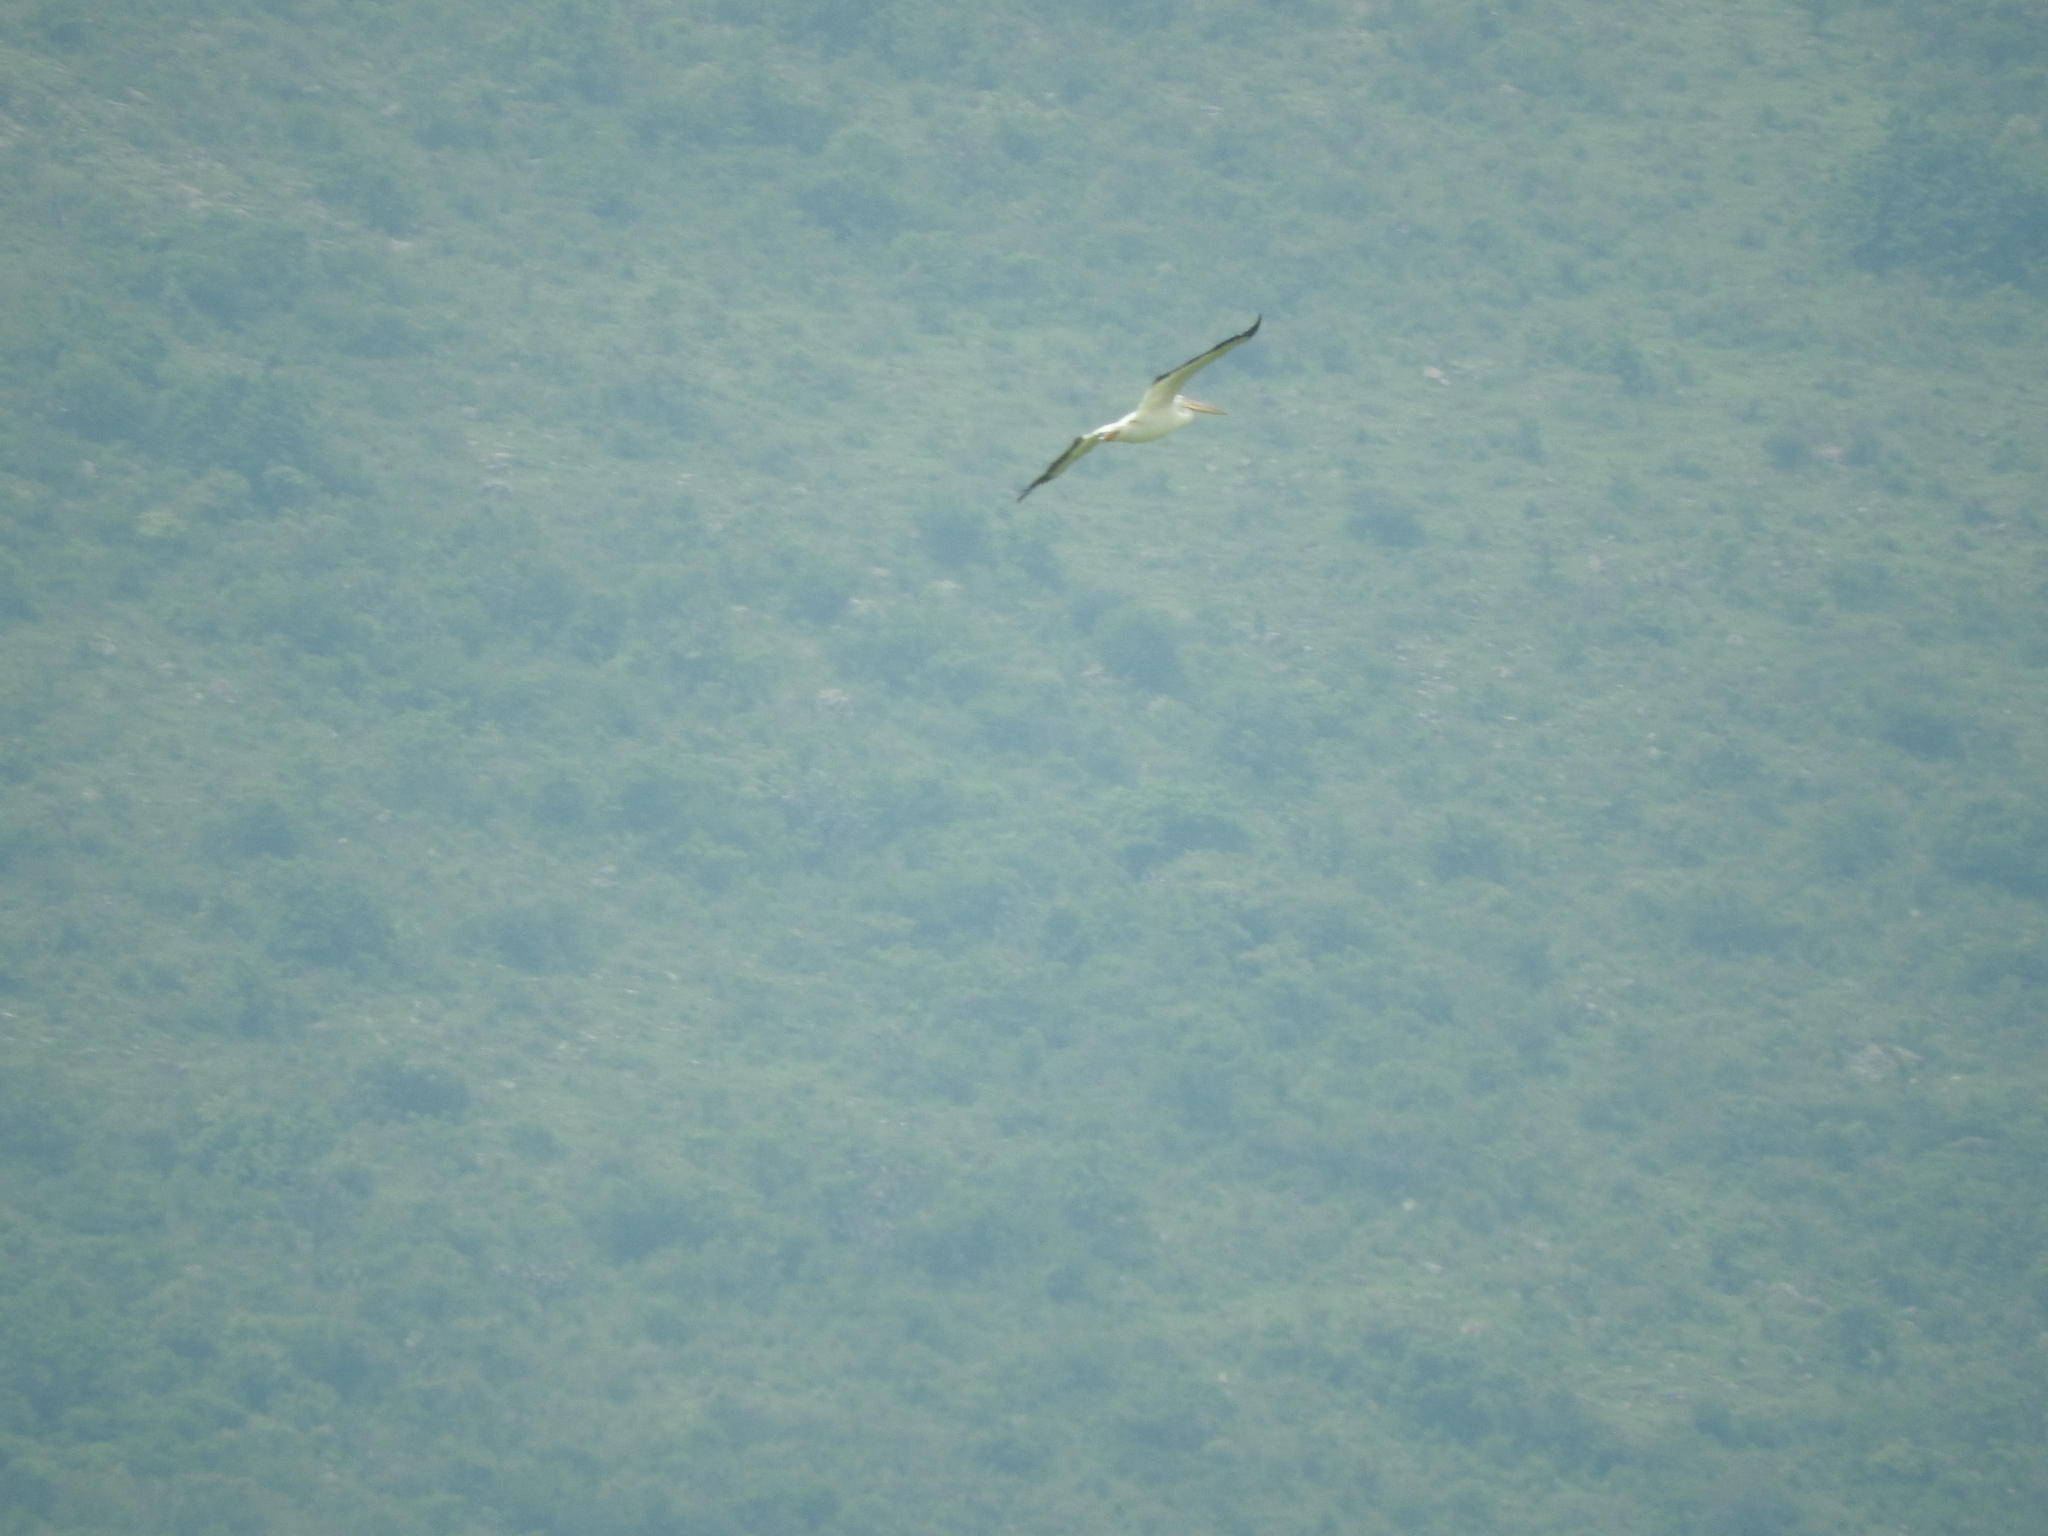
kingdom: Animalia
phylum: Chordata
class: Aves
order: Pelecaniformes
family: Pelecanidae
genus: Pelecanus
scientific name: Pelecanus erythrorhynchos
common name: American white pelican
